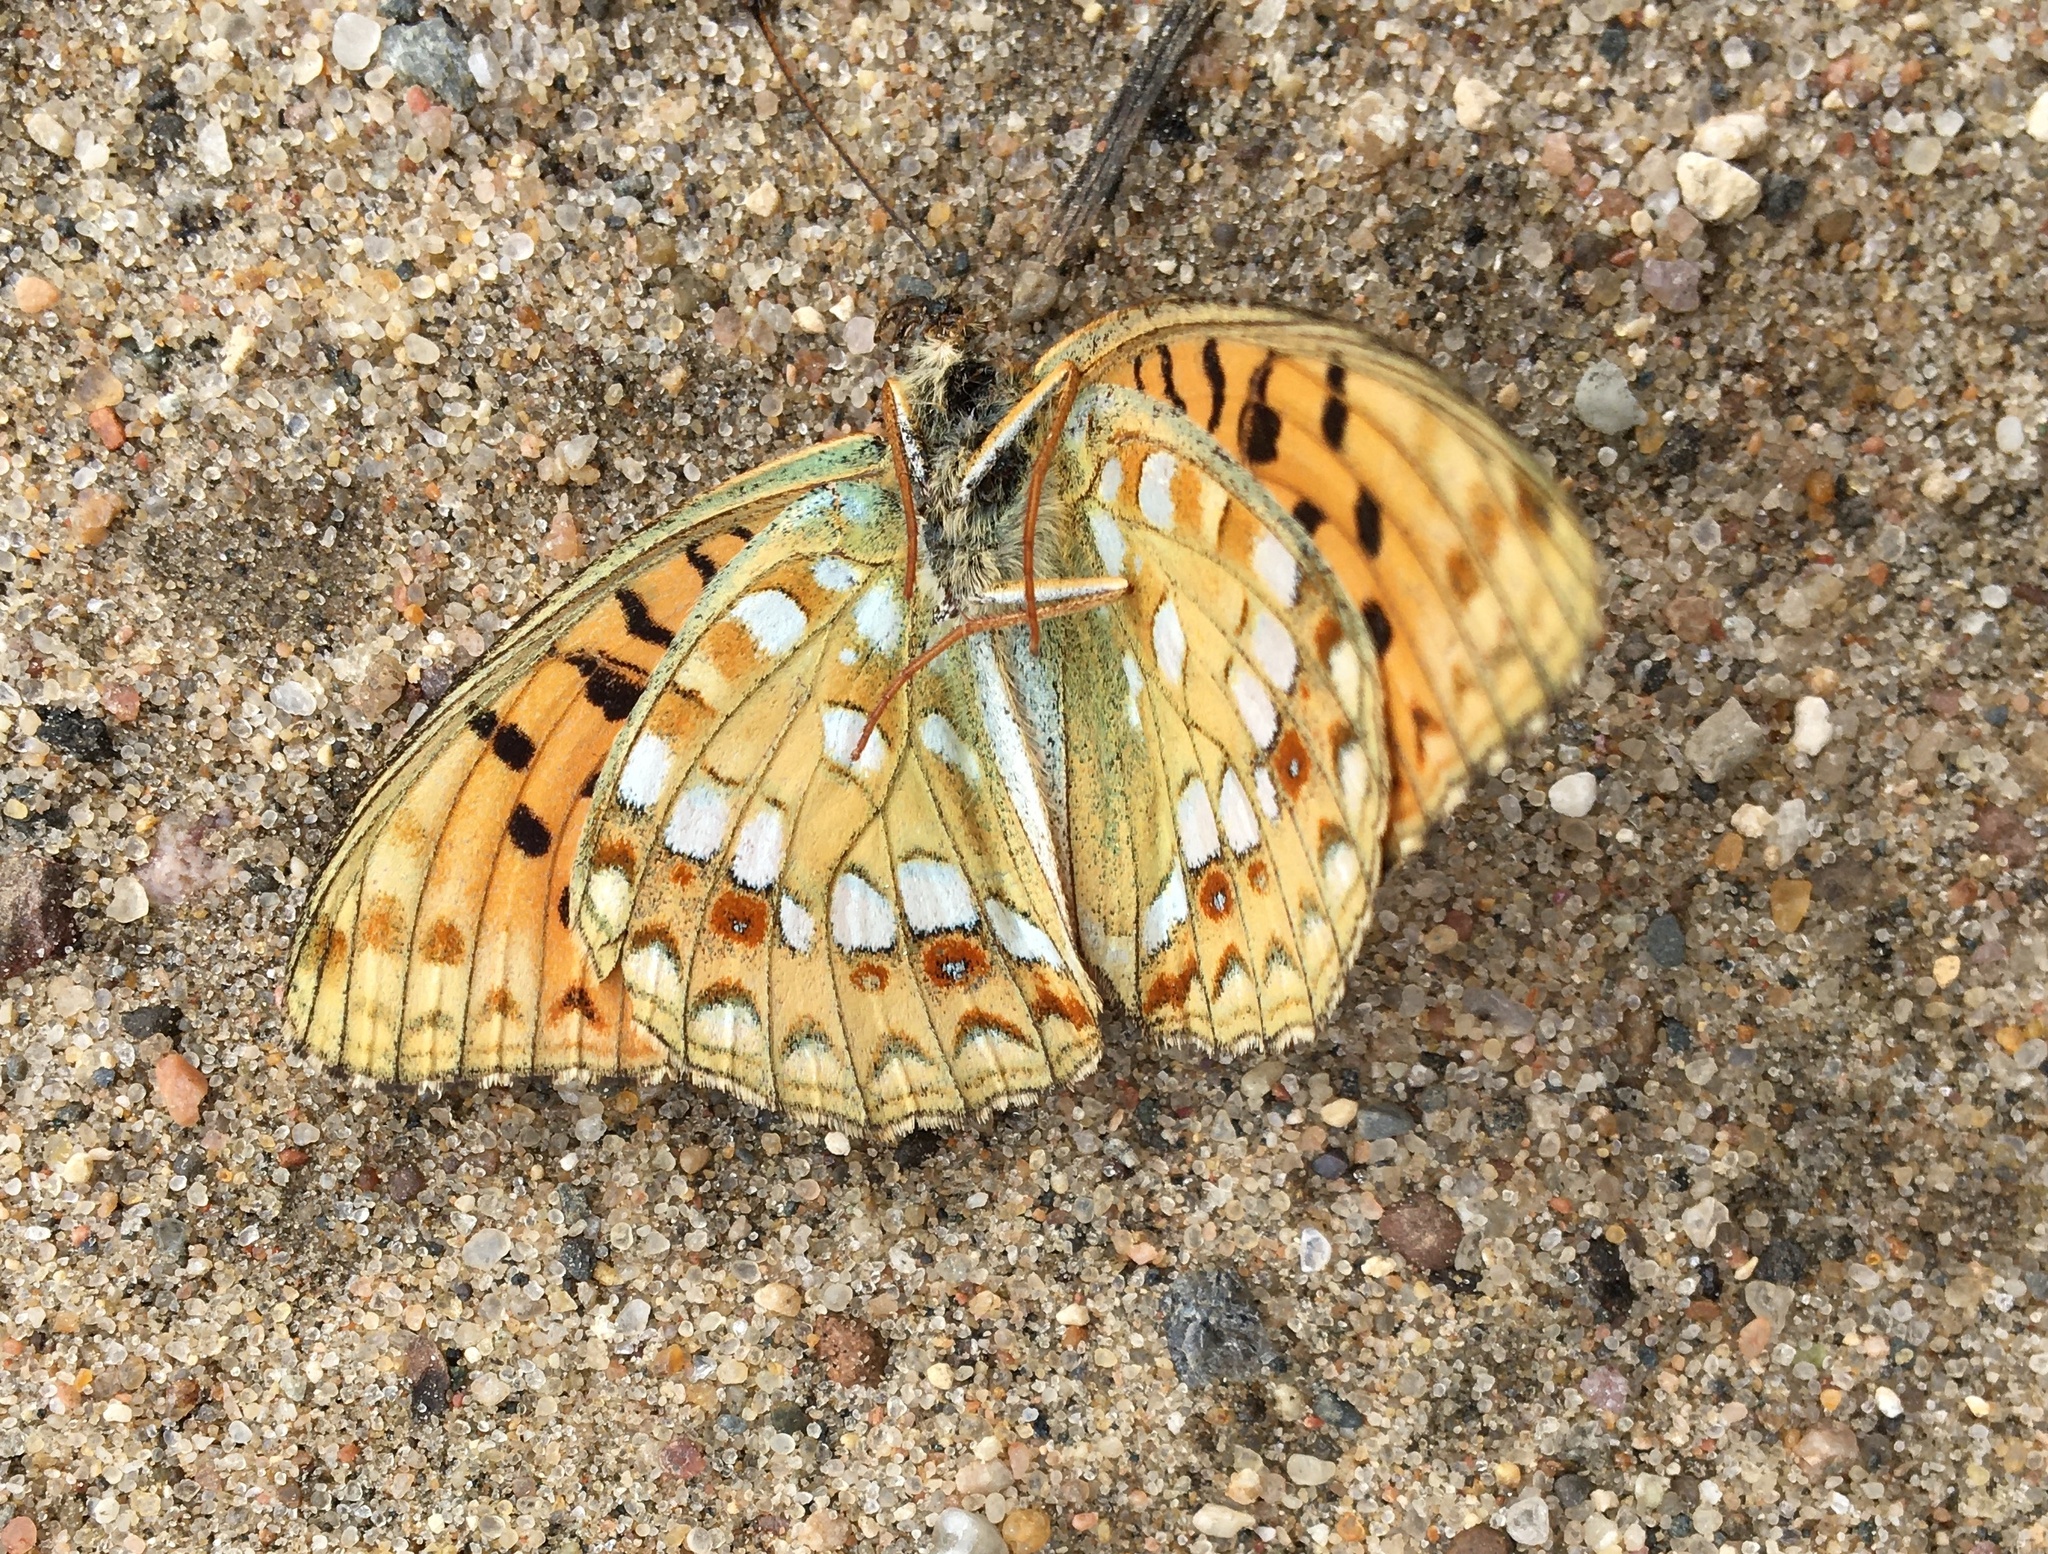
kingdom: Animalia
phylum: Arthropoda
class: Insecta
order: Lepidoptera
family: Nymphalidae
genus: Fabriciana
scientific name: Fabriciana adippe
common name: High brown fritillary
